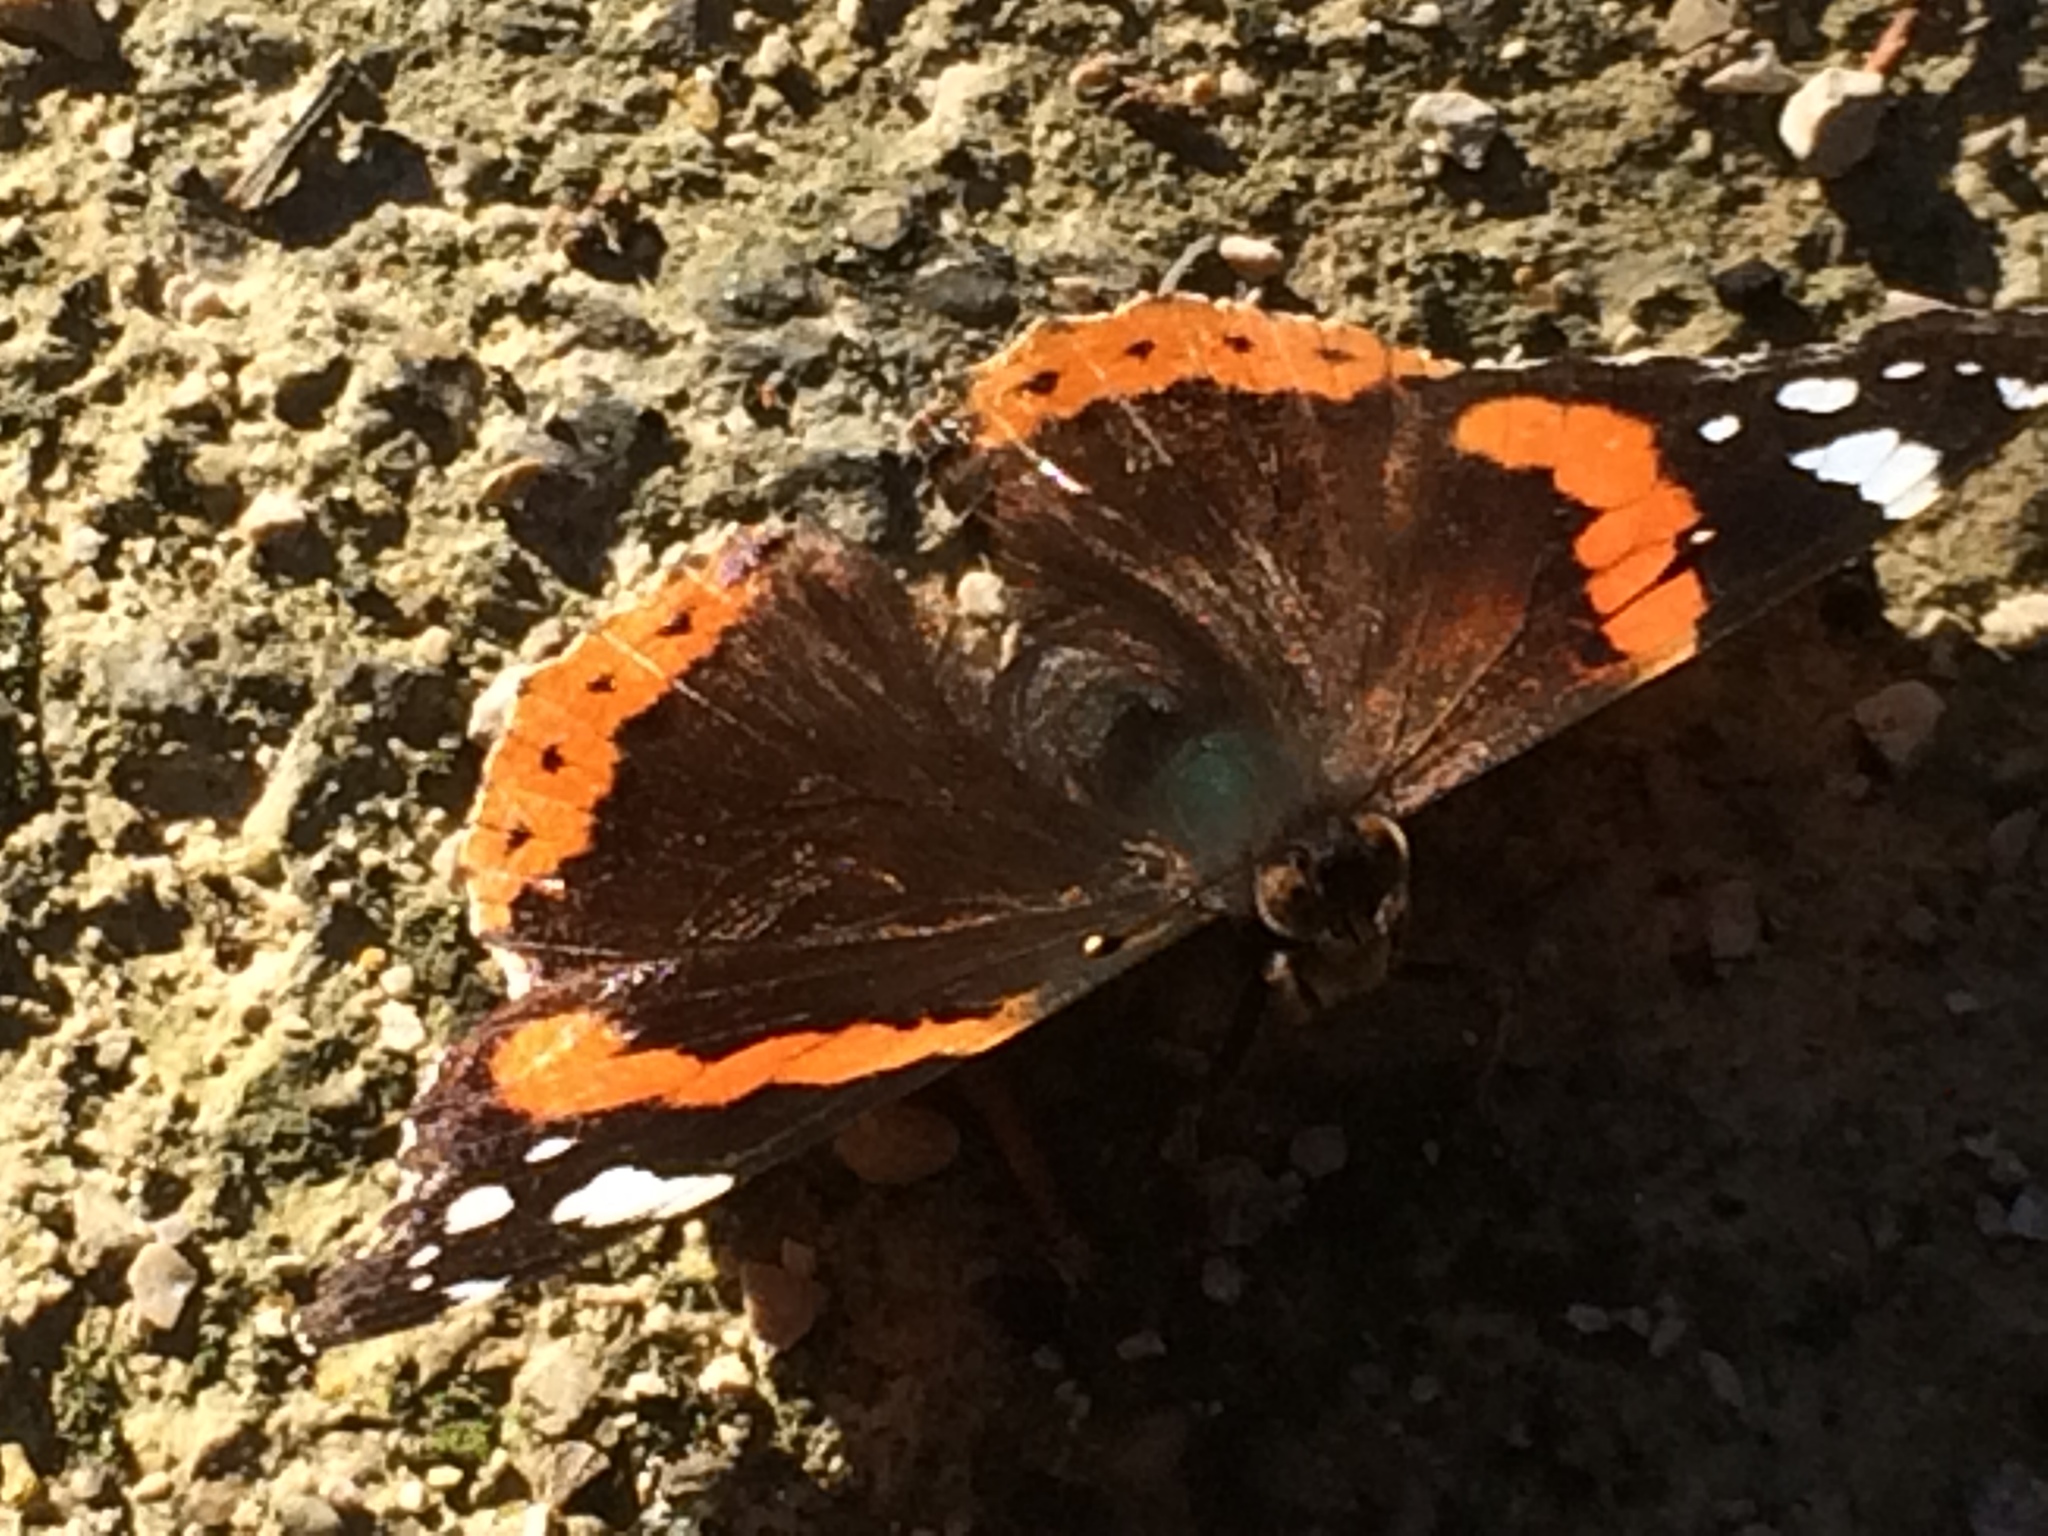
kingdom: Animalia
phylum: Arthropoda
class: Insecta
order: Lepidoptera
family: Nymphalidae
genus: Vanessa
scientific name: Vanessa atalanta
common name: Red admiral
